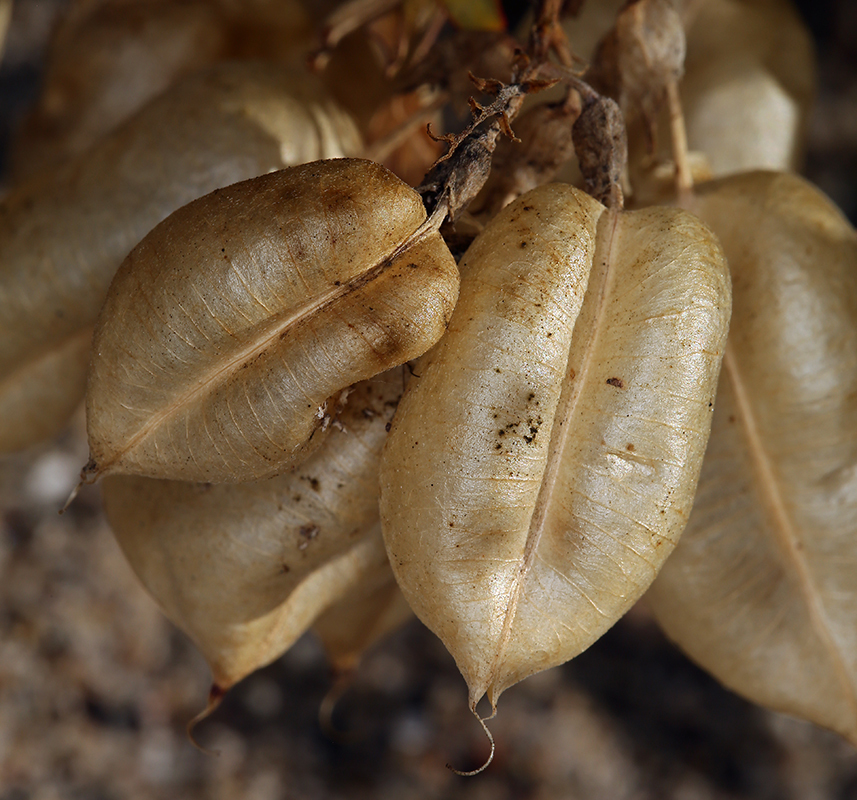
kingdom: Plantae
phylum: Tracheophyta
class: Magnoliopsida
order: Fabales
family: Fabaceae
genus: Astragalus
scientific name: Astragalus trichopodus
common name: Santa barbara milk-vetch
